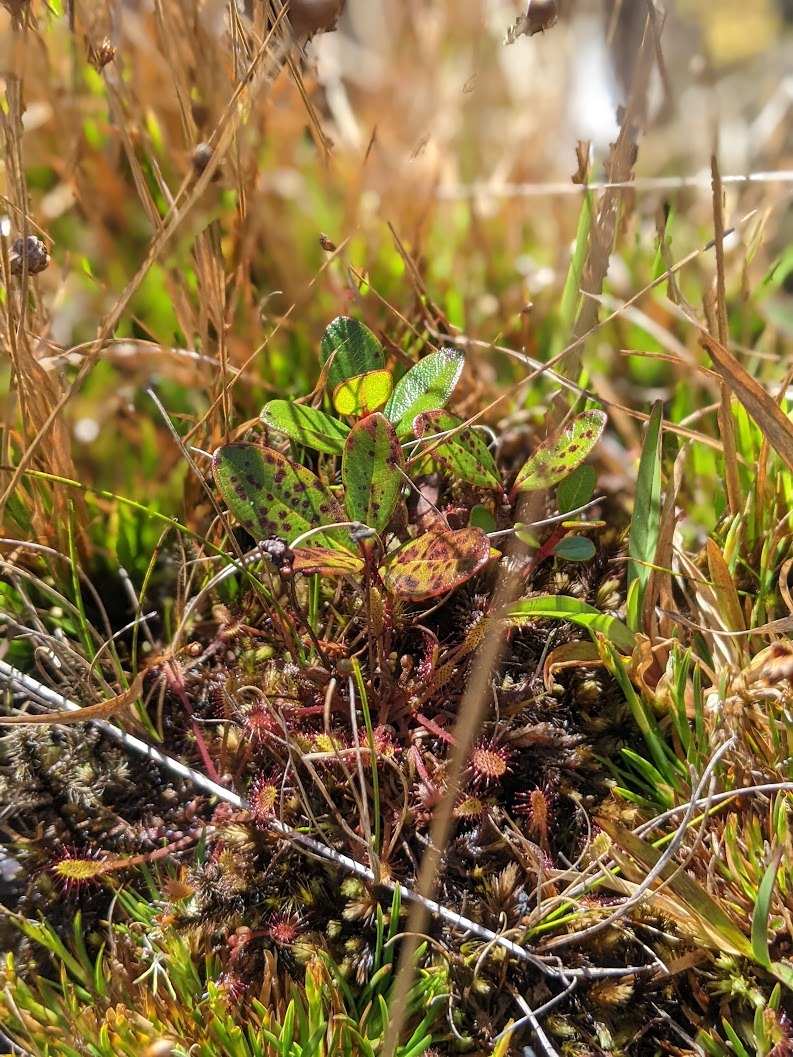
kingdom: Plantae
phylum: Tracheophyta
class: Magnoliopsida
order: Caryophyllales
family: Droseraceae
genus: Drosera
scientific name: Drosera anglica
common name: Great sundew
